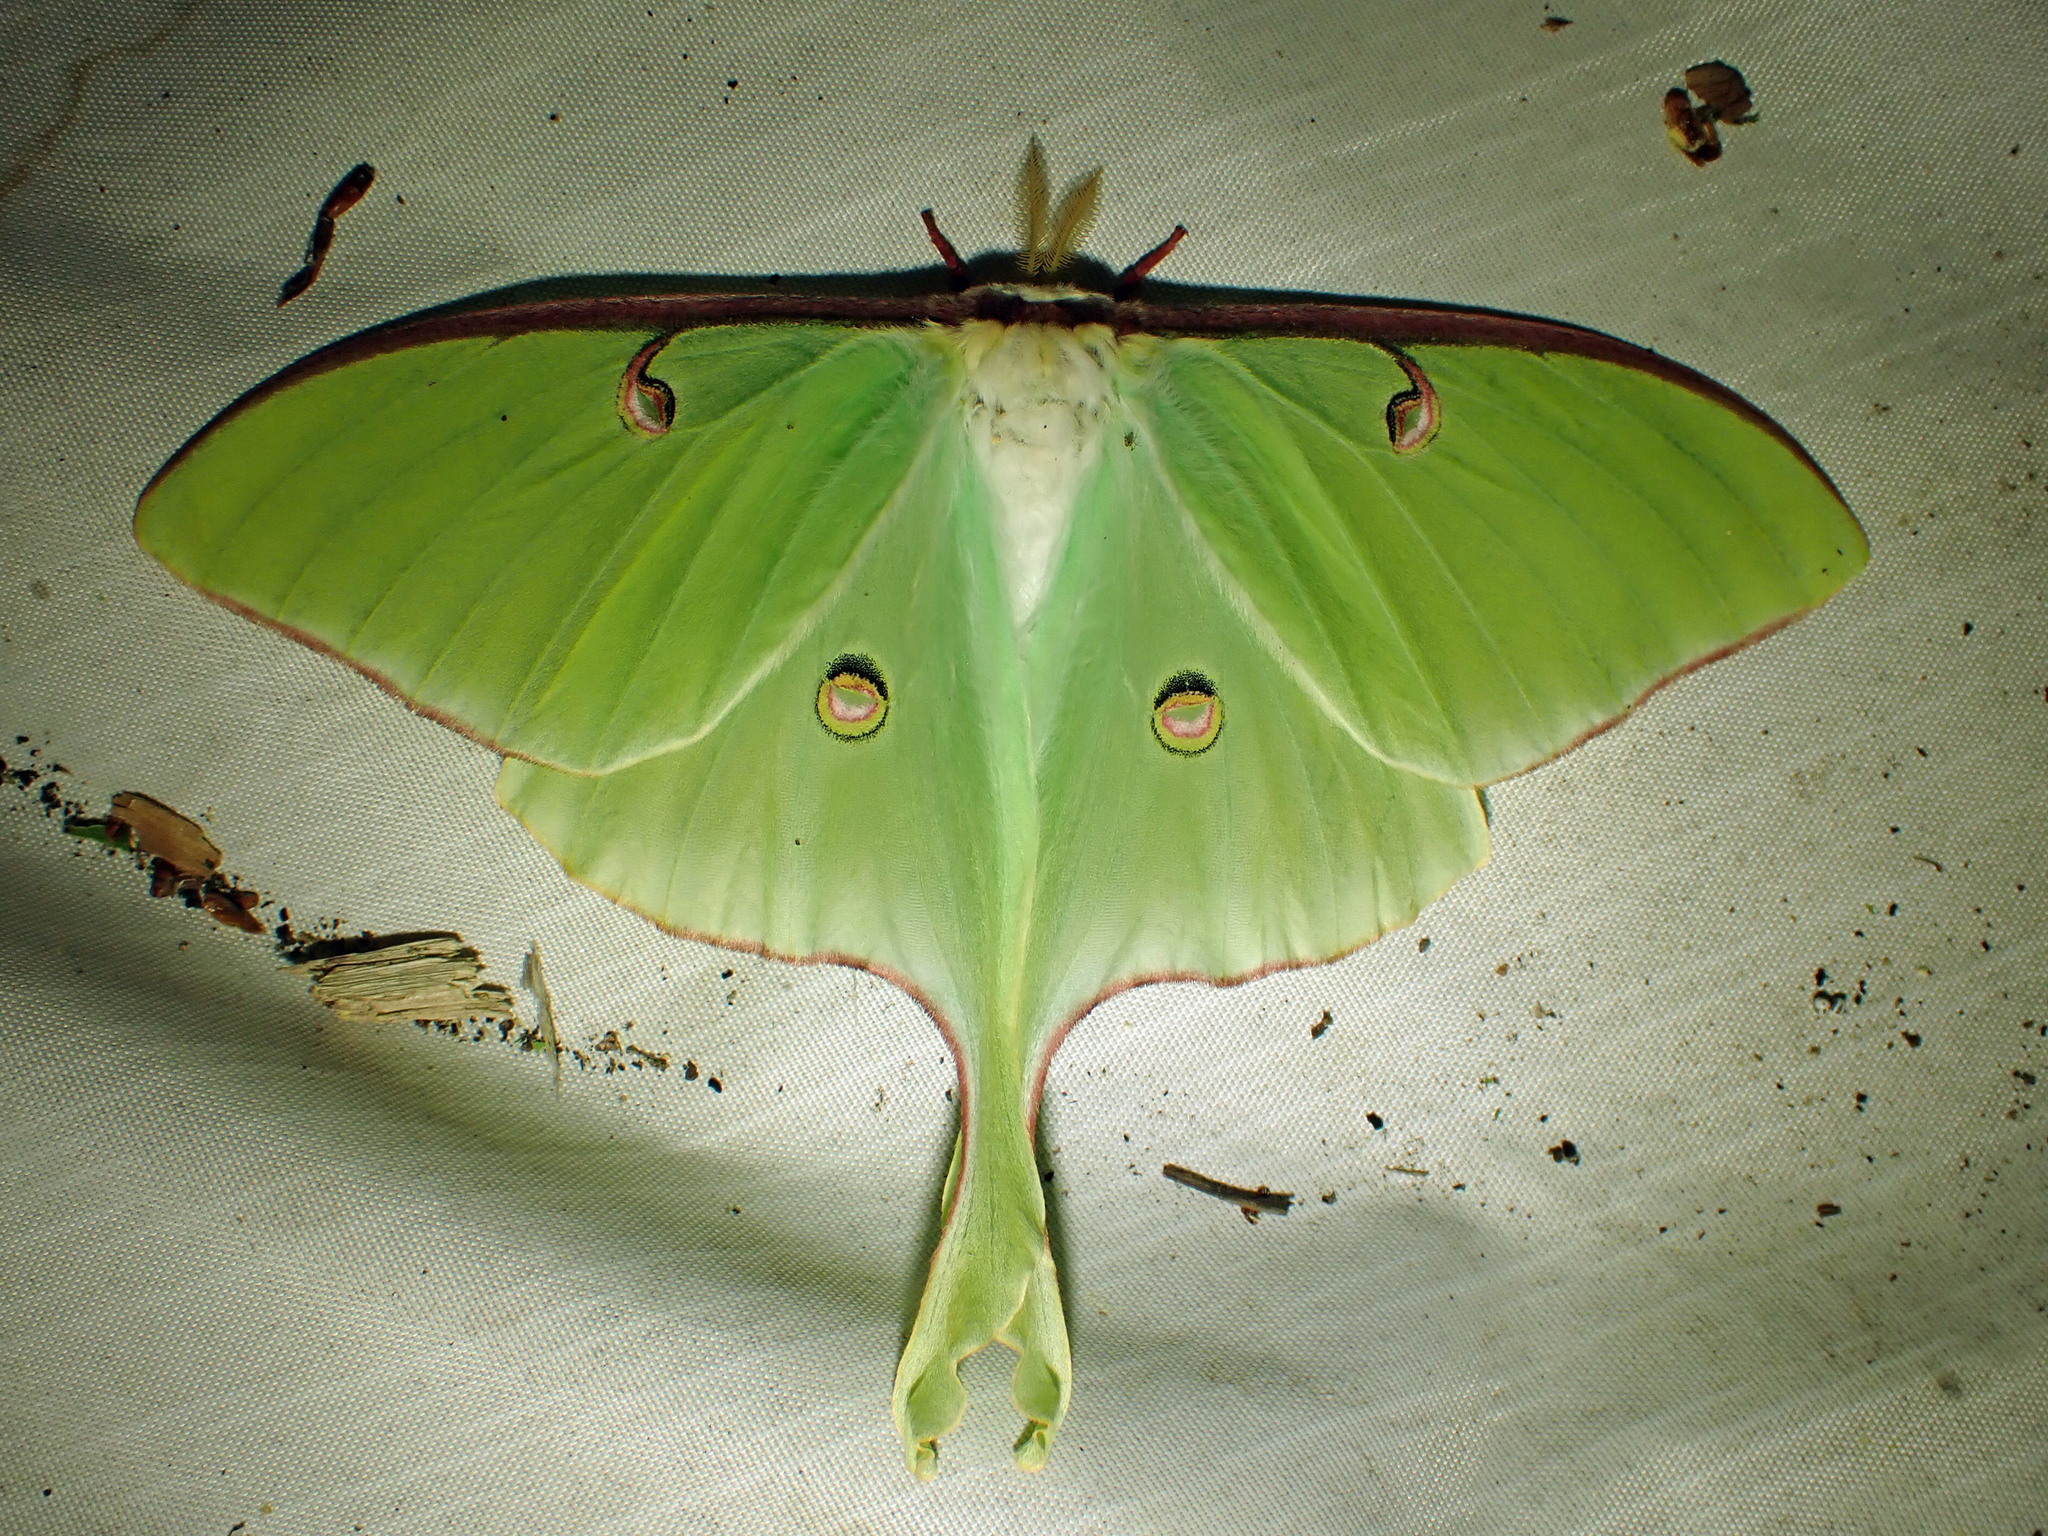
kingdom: Animalia
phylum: Arthropoda
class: Insecta
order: Lepidoptera
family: Saturniidae
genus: Actias
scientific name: Actias luna
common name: Luna moth
